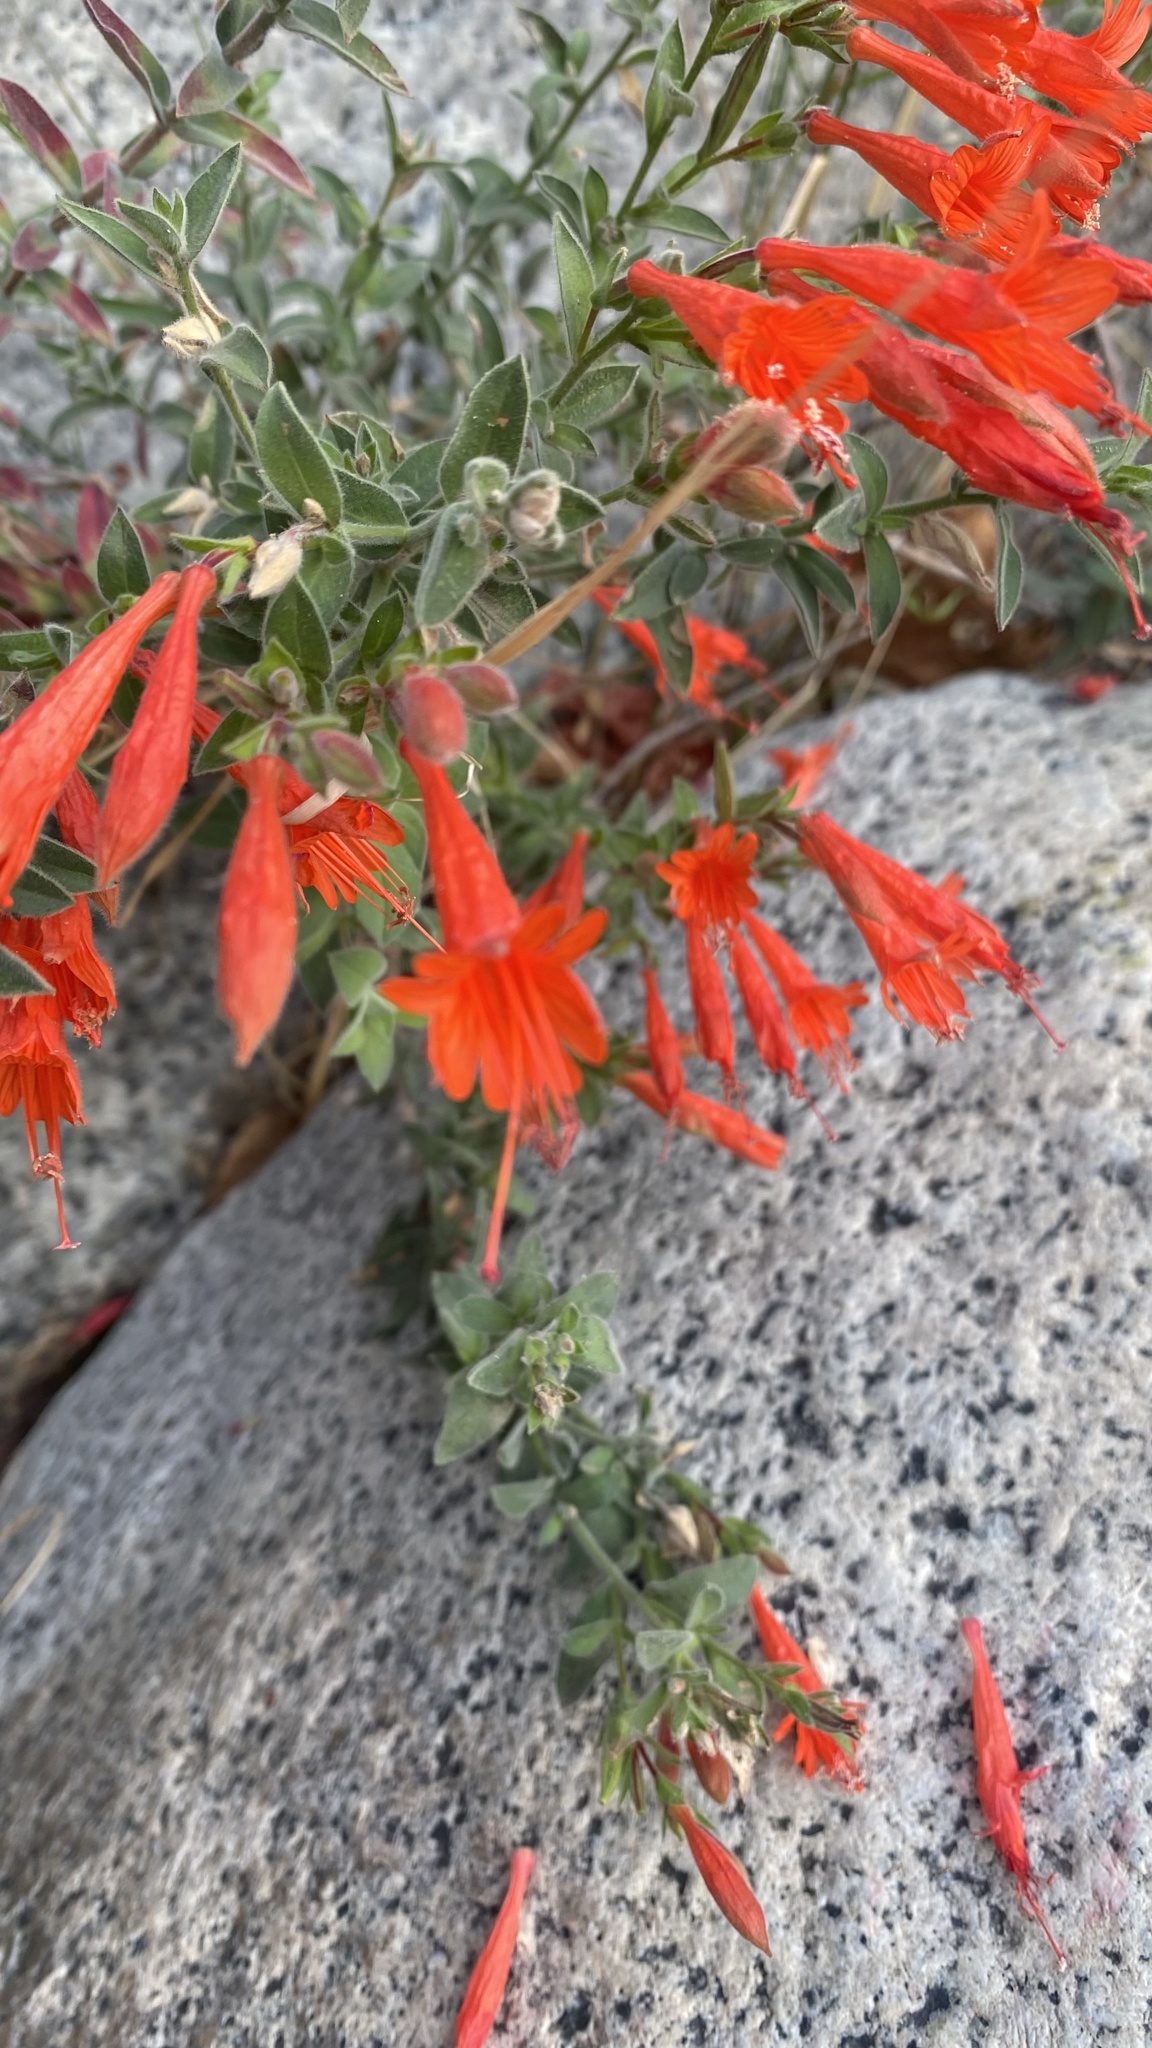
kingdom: Plantae
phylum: Tracheophyta
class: Magnoliopsida
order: Myrtales
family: Onagraceae
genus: Epilobium
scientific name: Epilobium canum
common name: California-fuchsia
